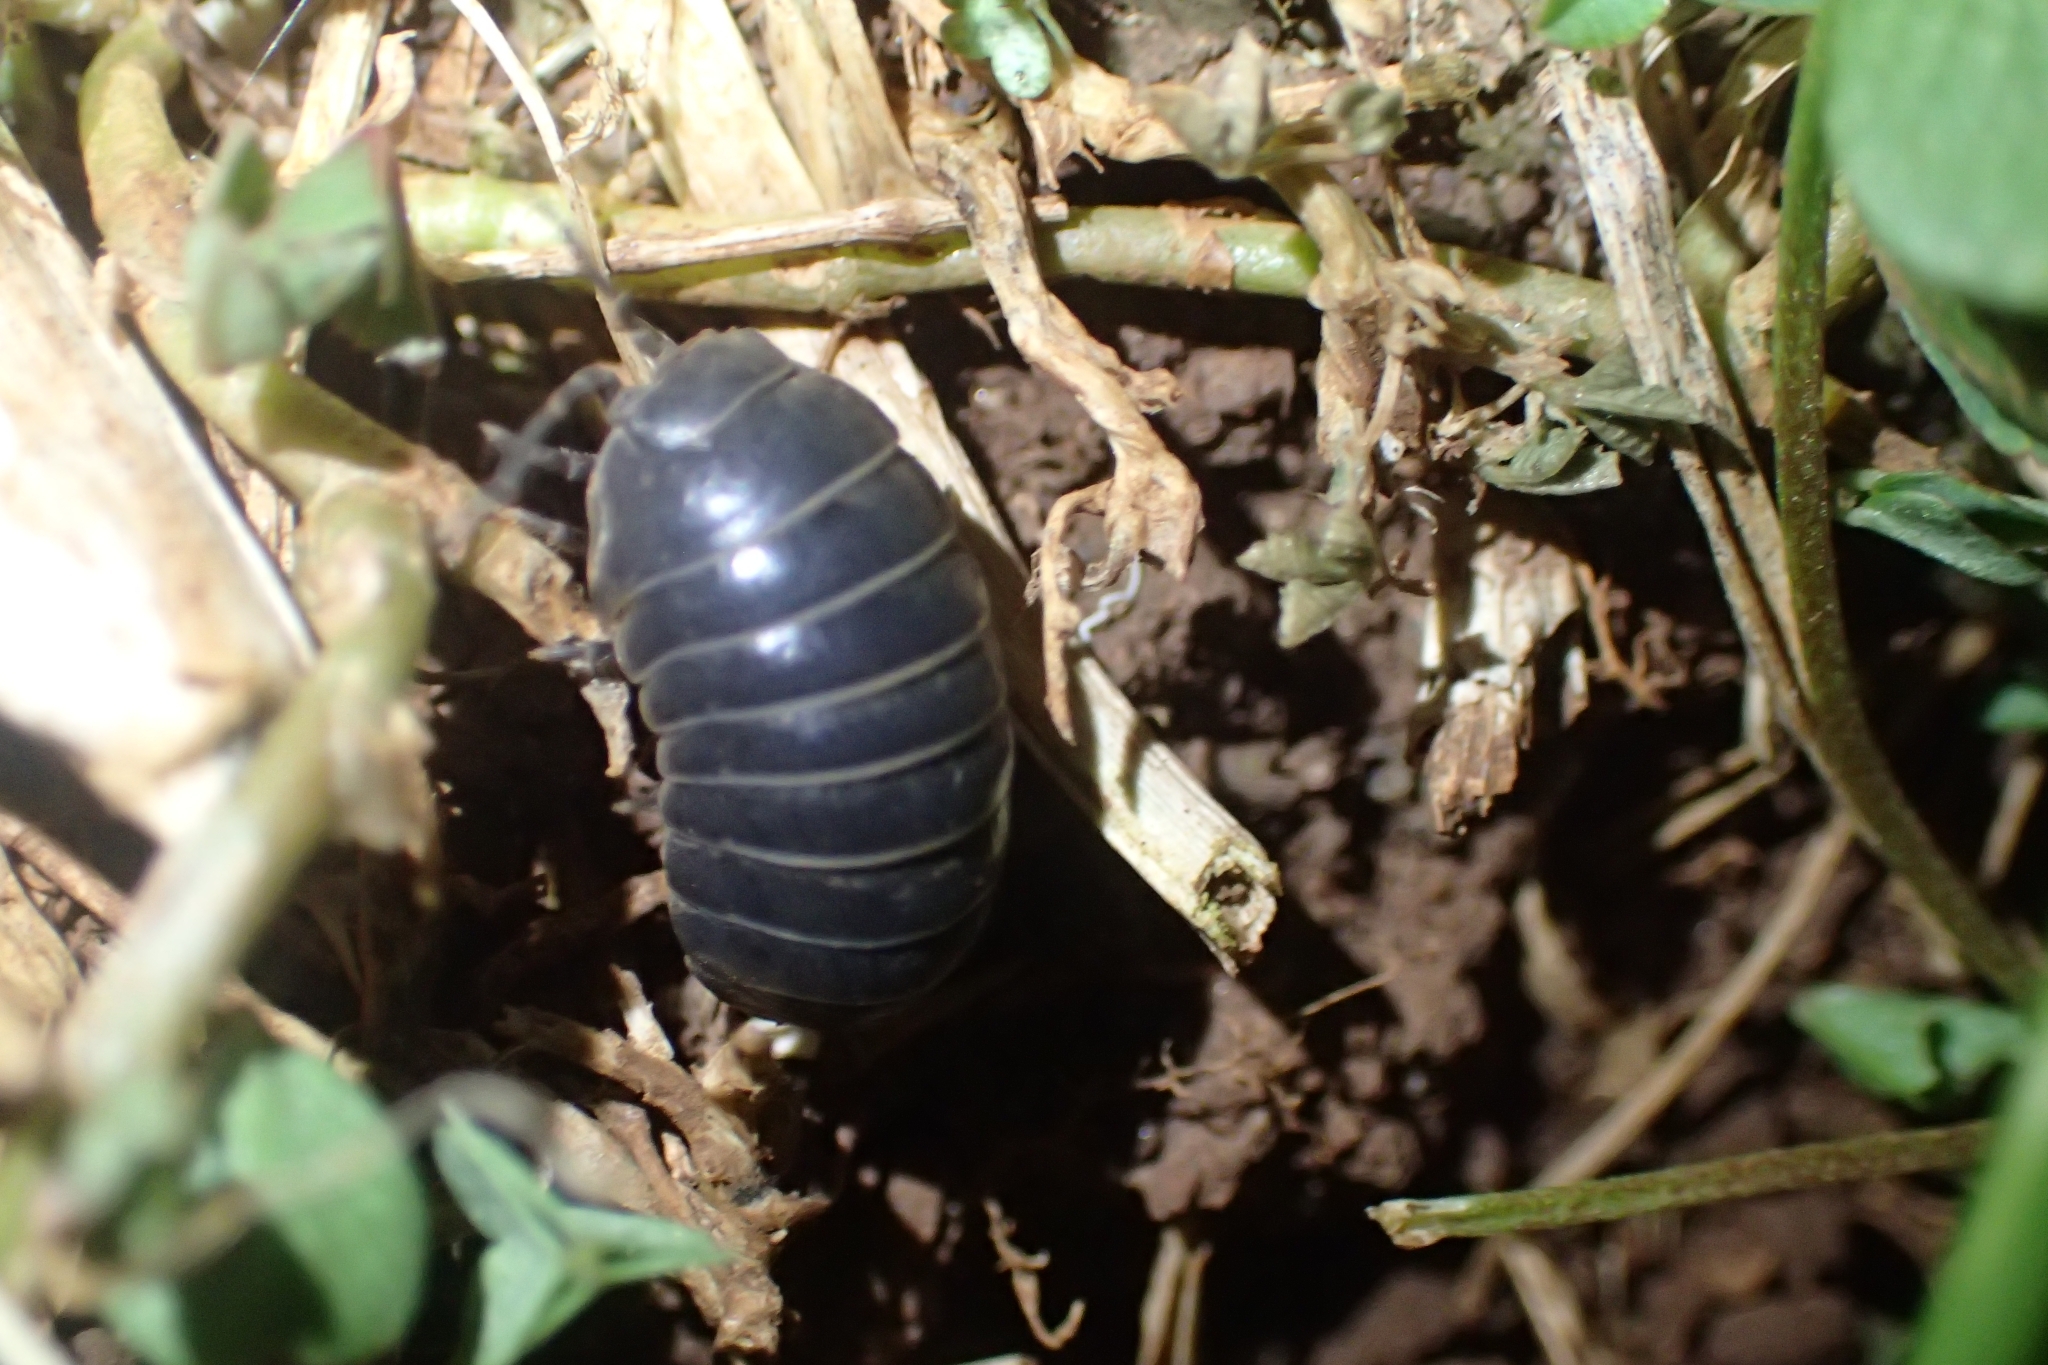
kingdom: Animalia
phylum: Arthropoda
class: Malacostraca
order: Isopoda
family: Armadillidiidae
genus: Armadillidium
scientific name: Armadillidium vulgare
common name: Common pill woodlouse
